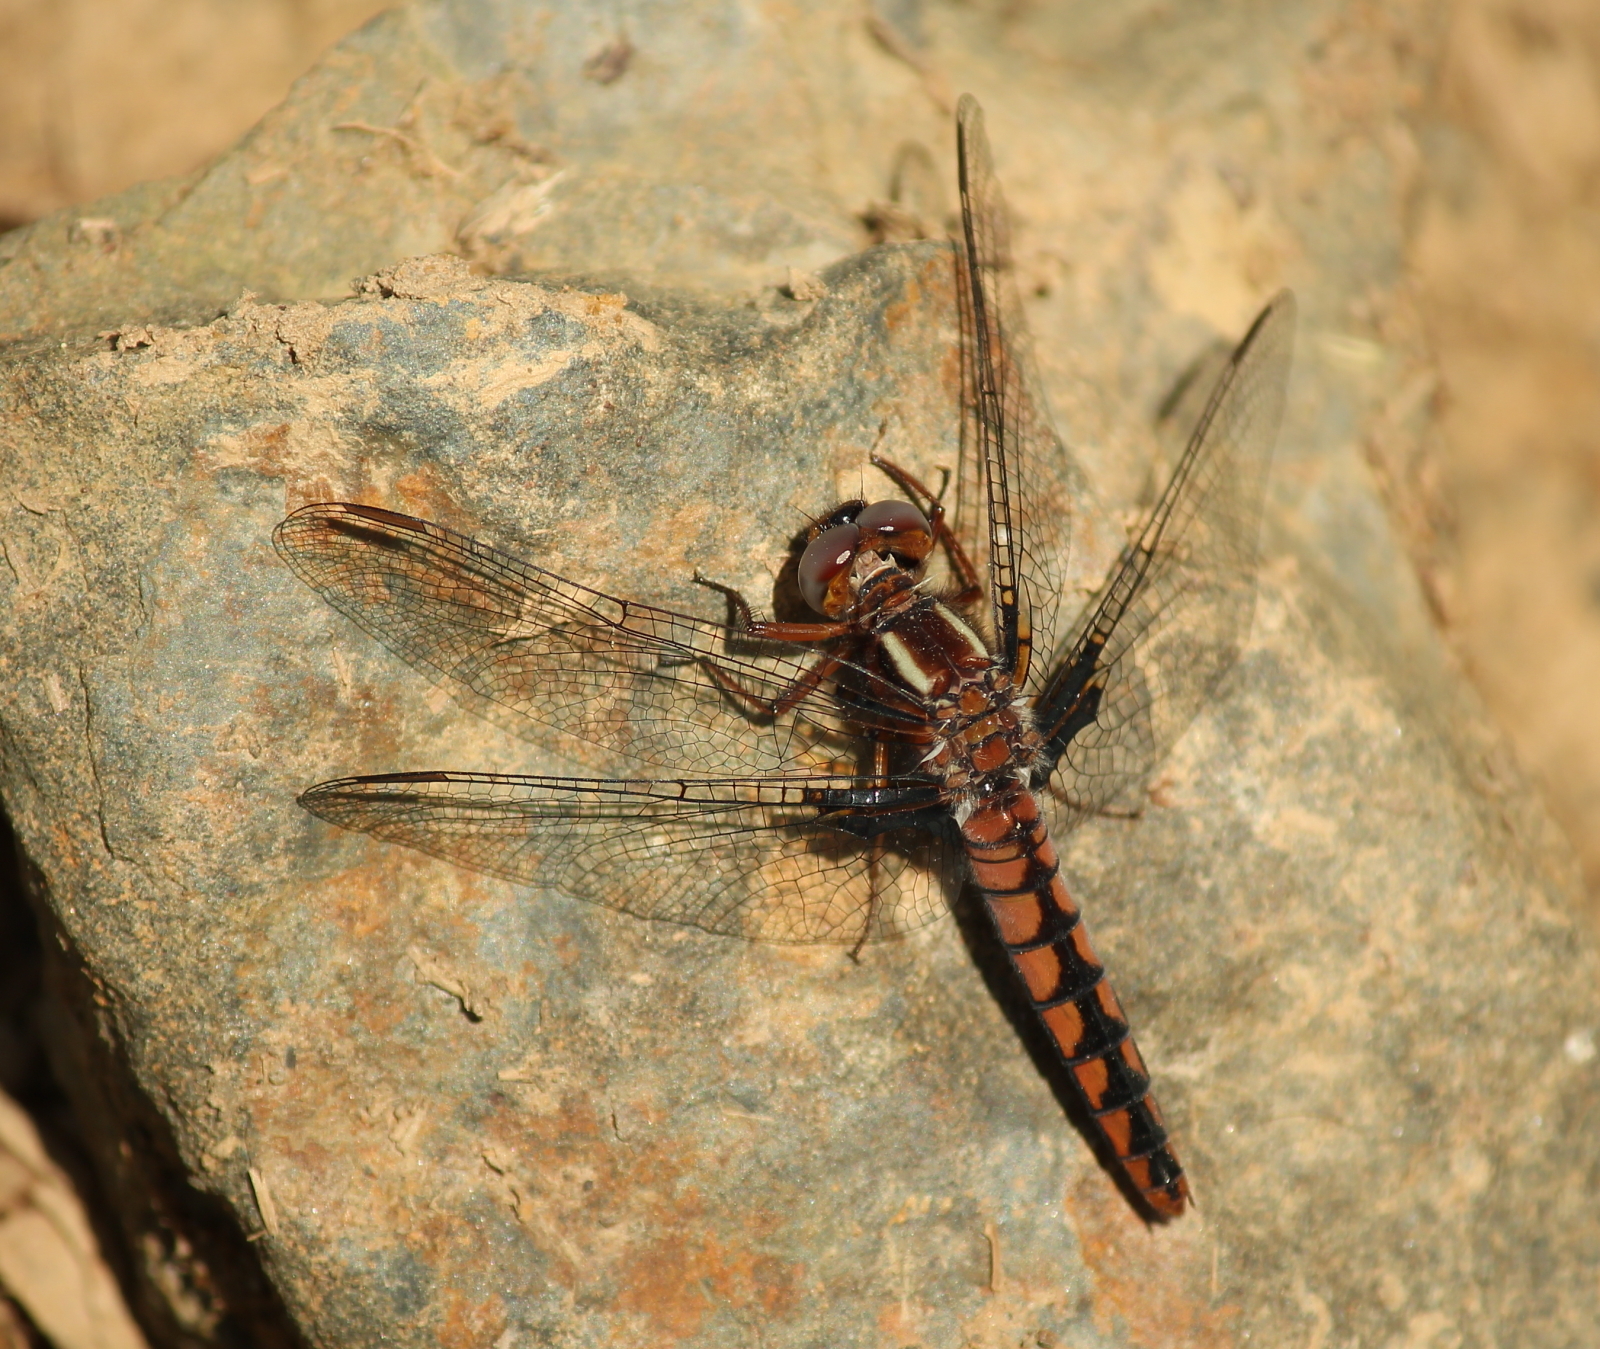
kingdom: Animalia
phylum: Arthropoda
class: Insecta
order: Odonata
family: Libellulidae
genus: Ladona
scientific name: Ladona deplanata
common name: Blue corporal
